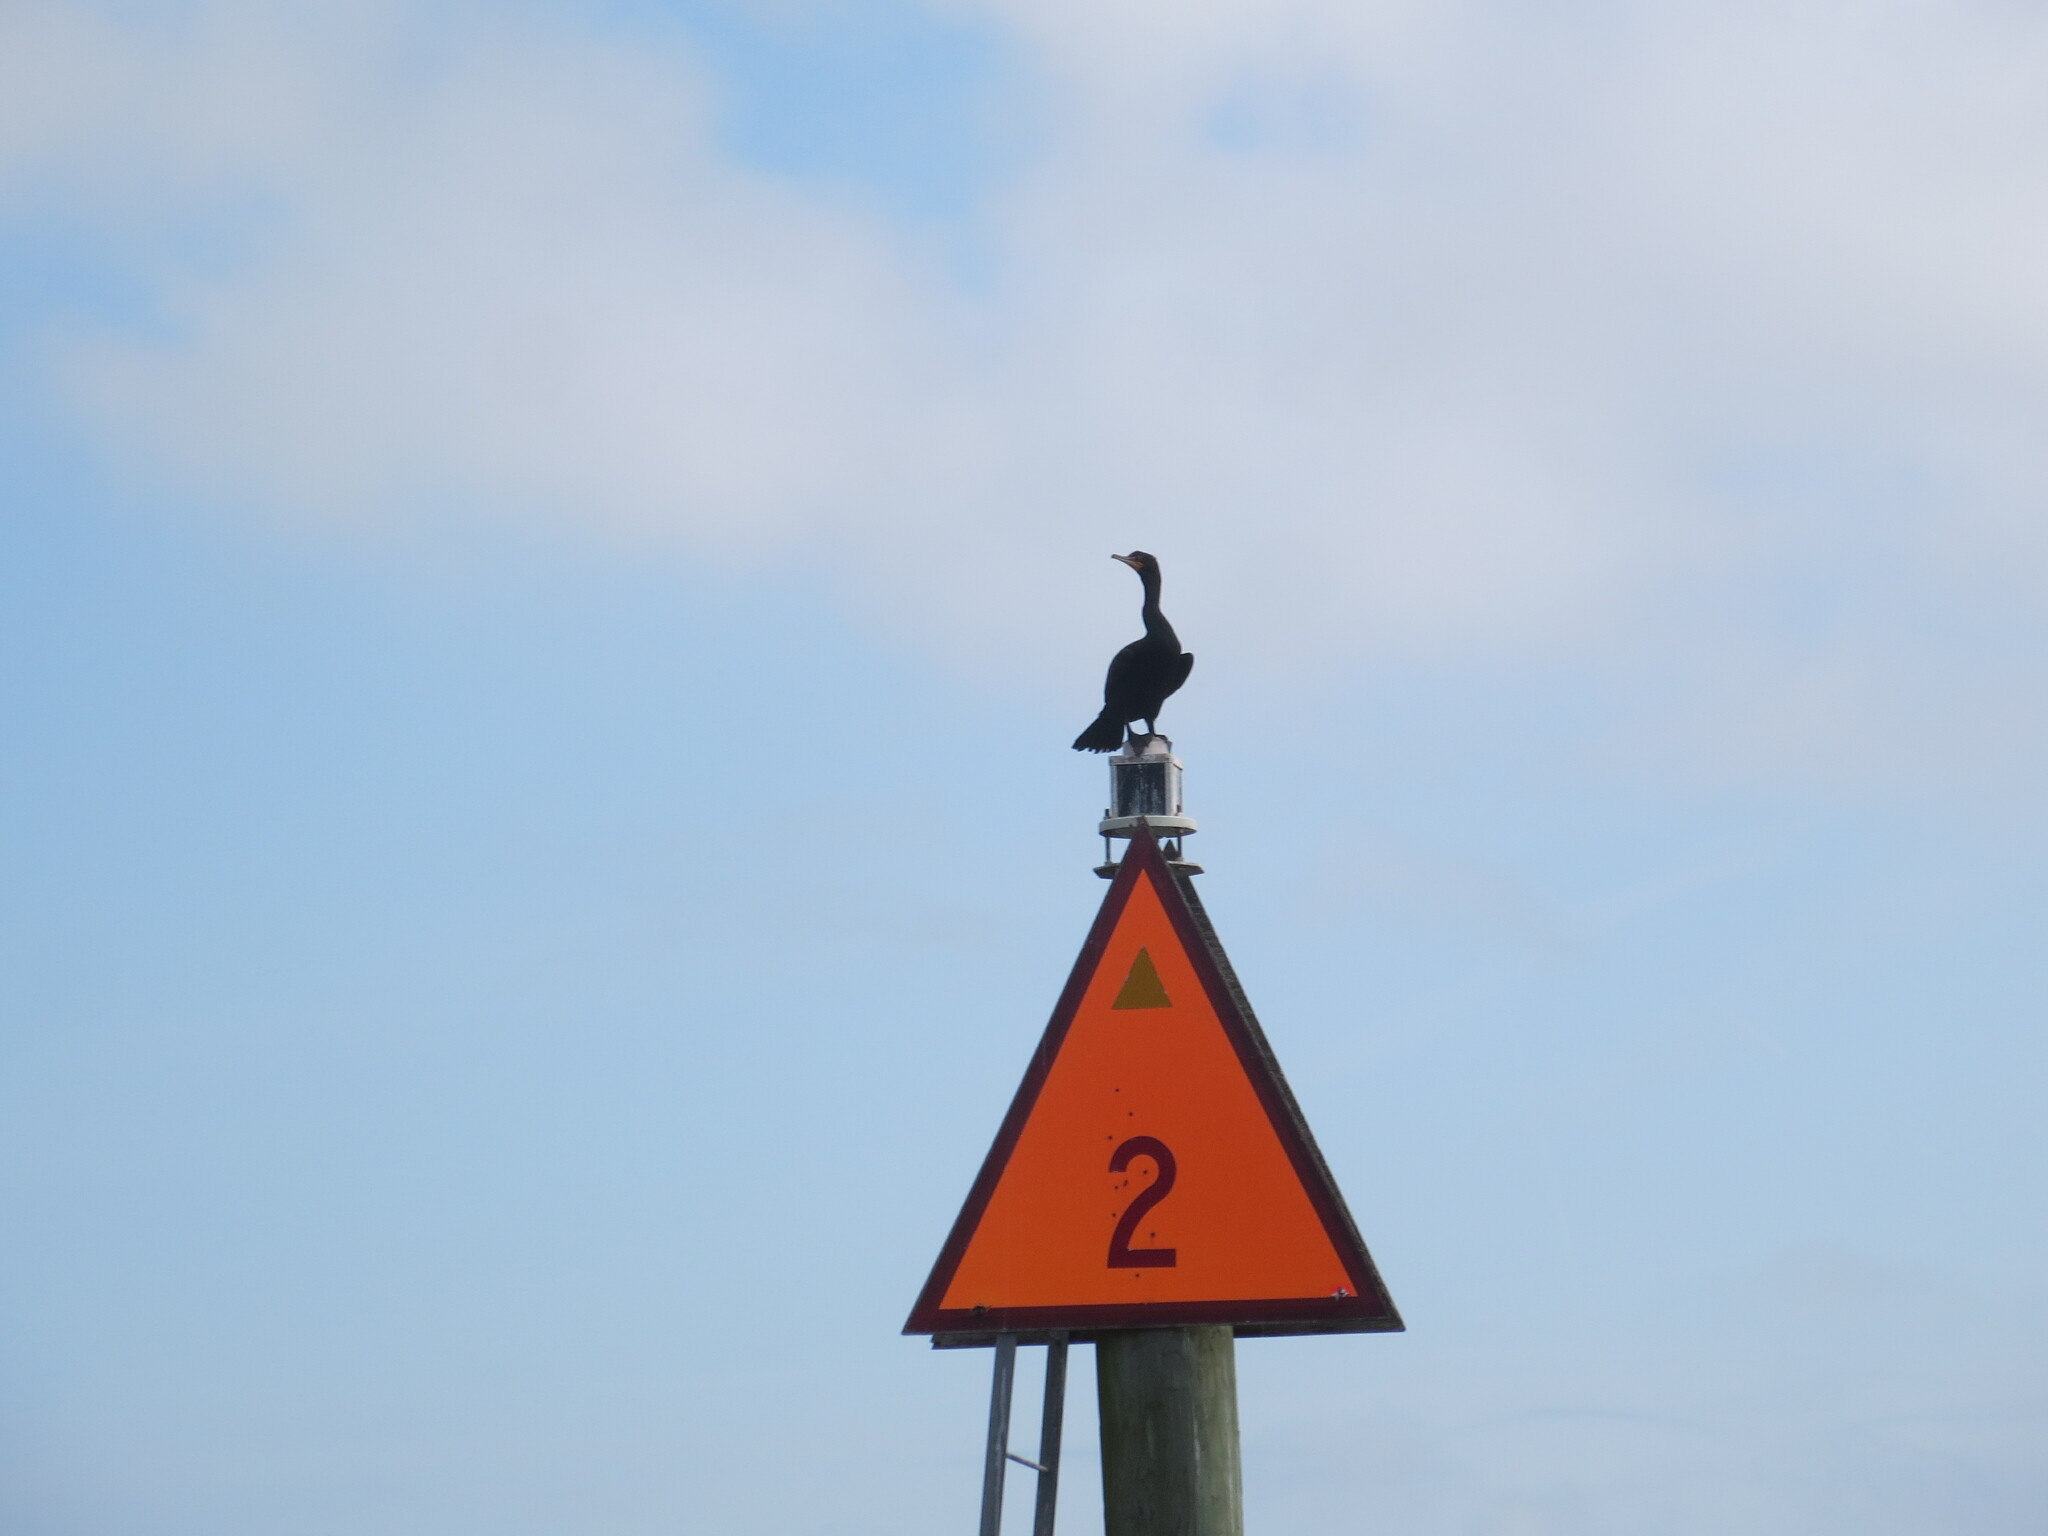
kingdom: Animalia
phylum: Chordata
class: Aves
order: Suliformes
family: Phalacrocoracidae
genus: Phalacrocorax
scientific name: Phalacrocorax auritus
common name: Double-crested cormorant
